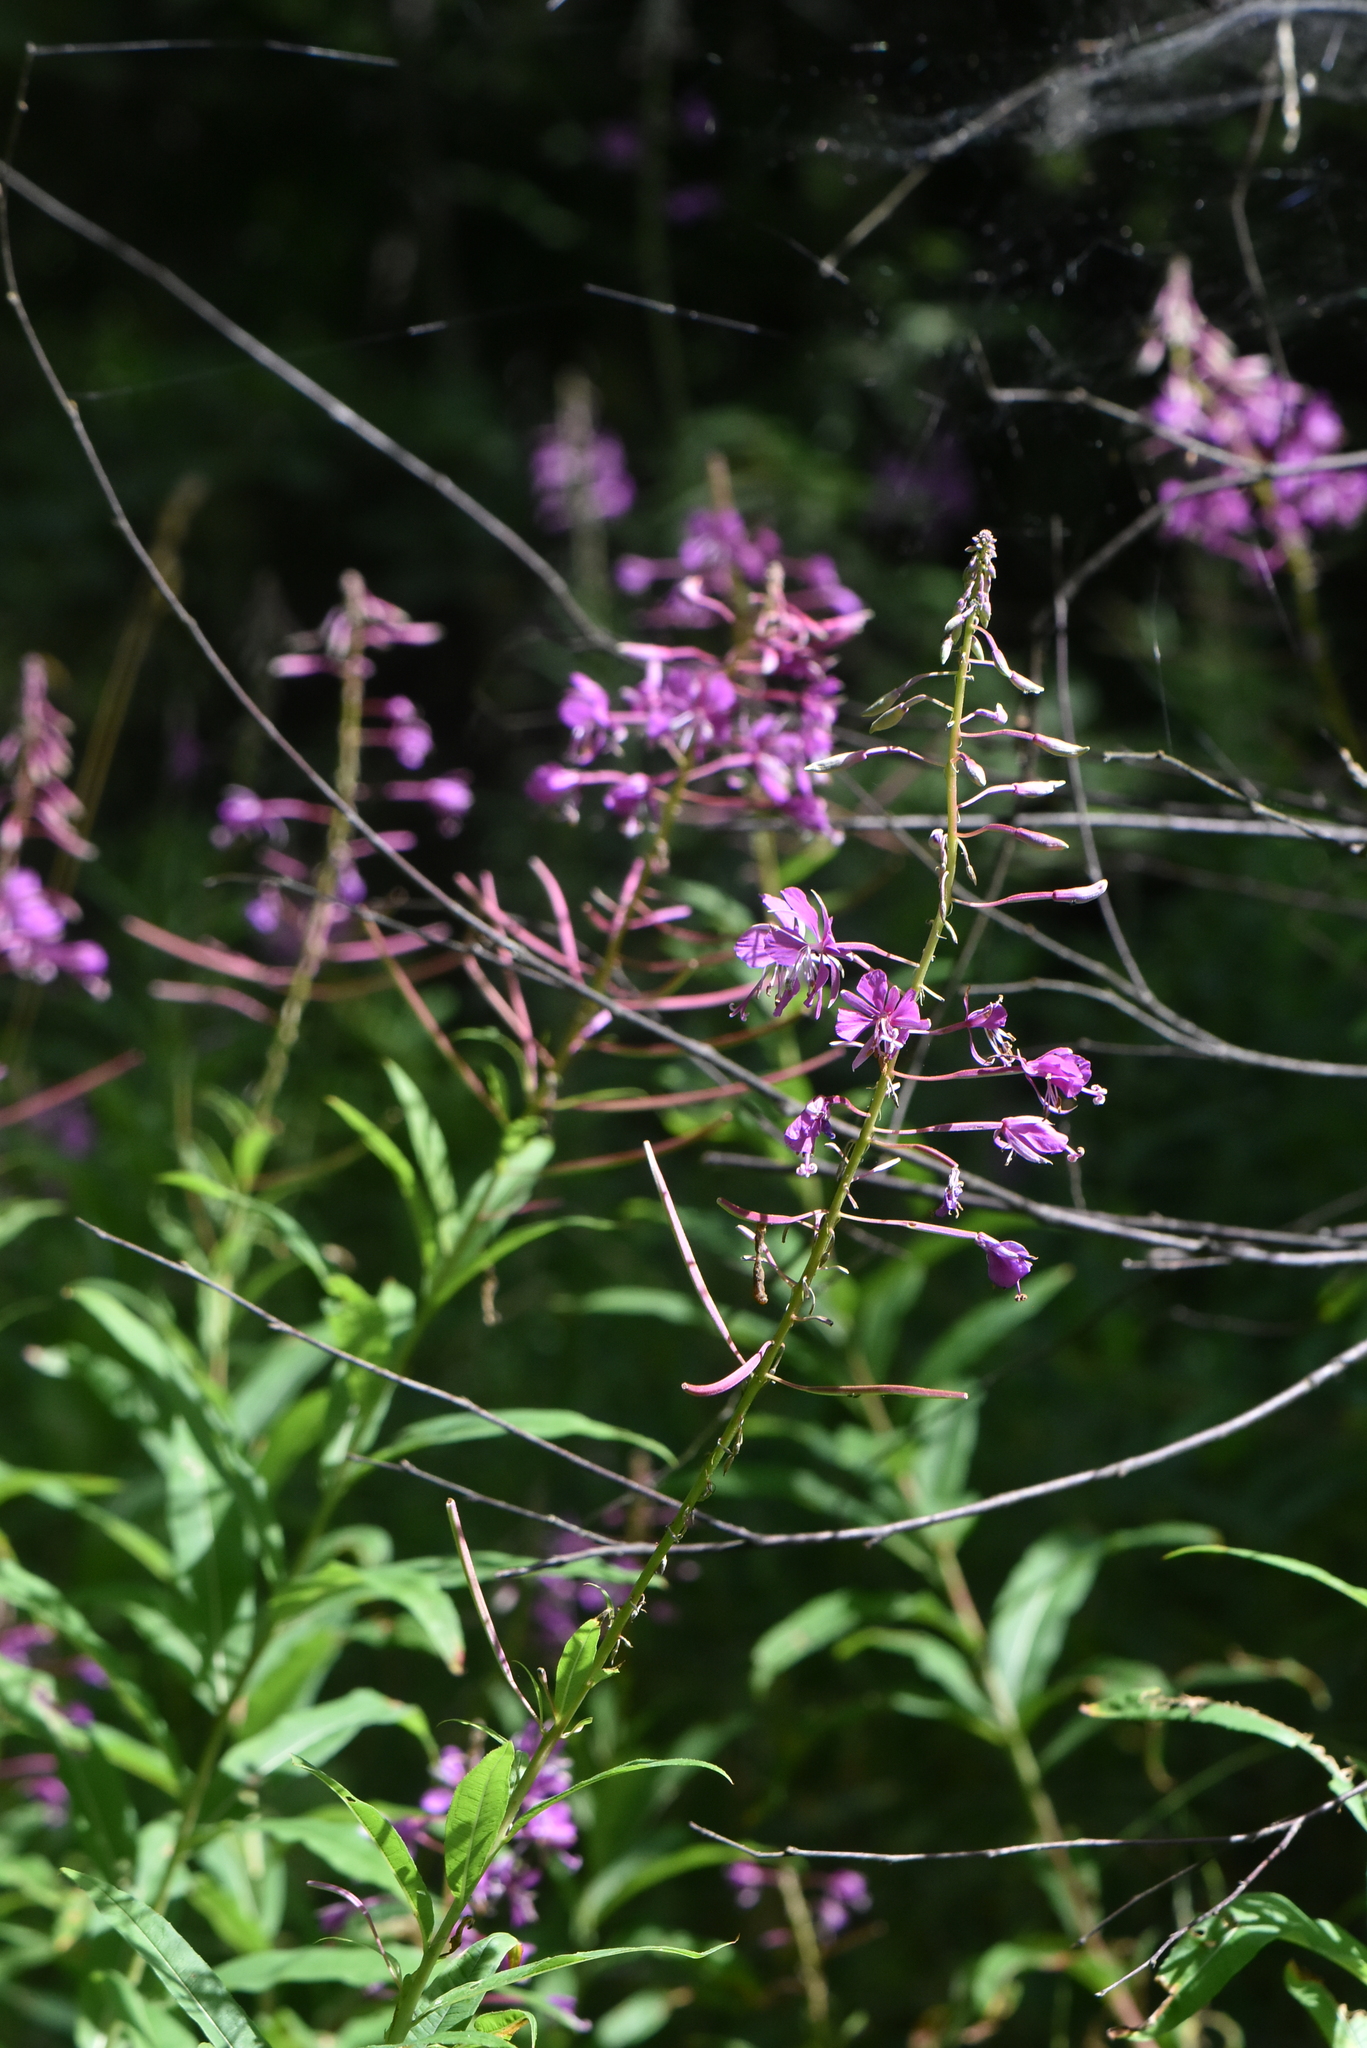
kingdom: Plantae
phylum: Tracheophyta
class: Magnoliopsida
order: Myrtales
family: Onagraceae
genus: Chamaenerion
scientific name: Chamaenerion angustifolium
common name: Fireweed
